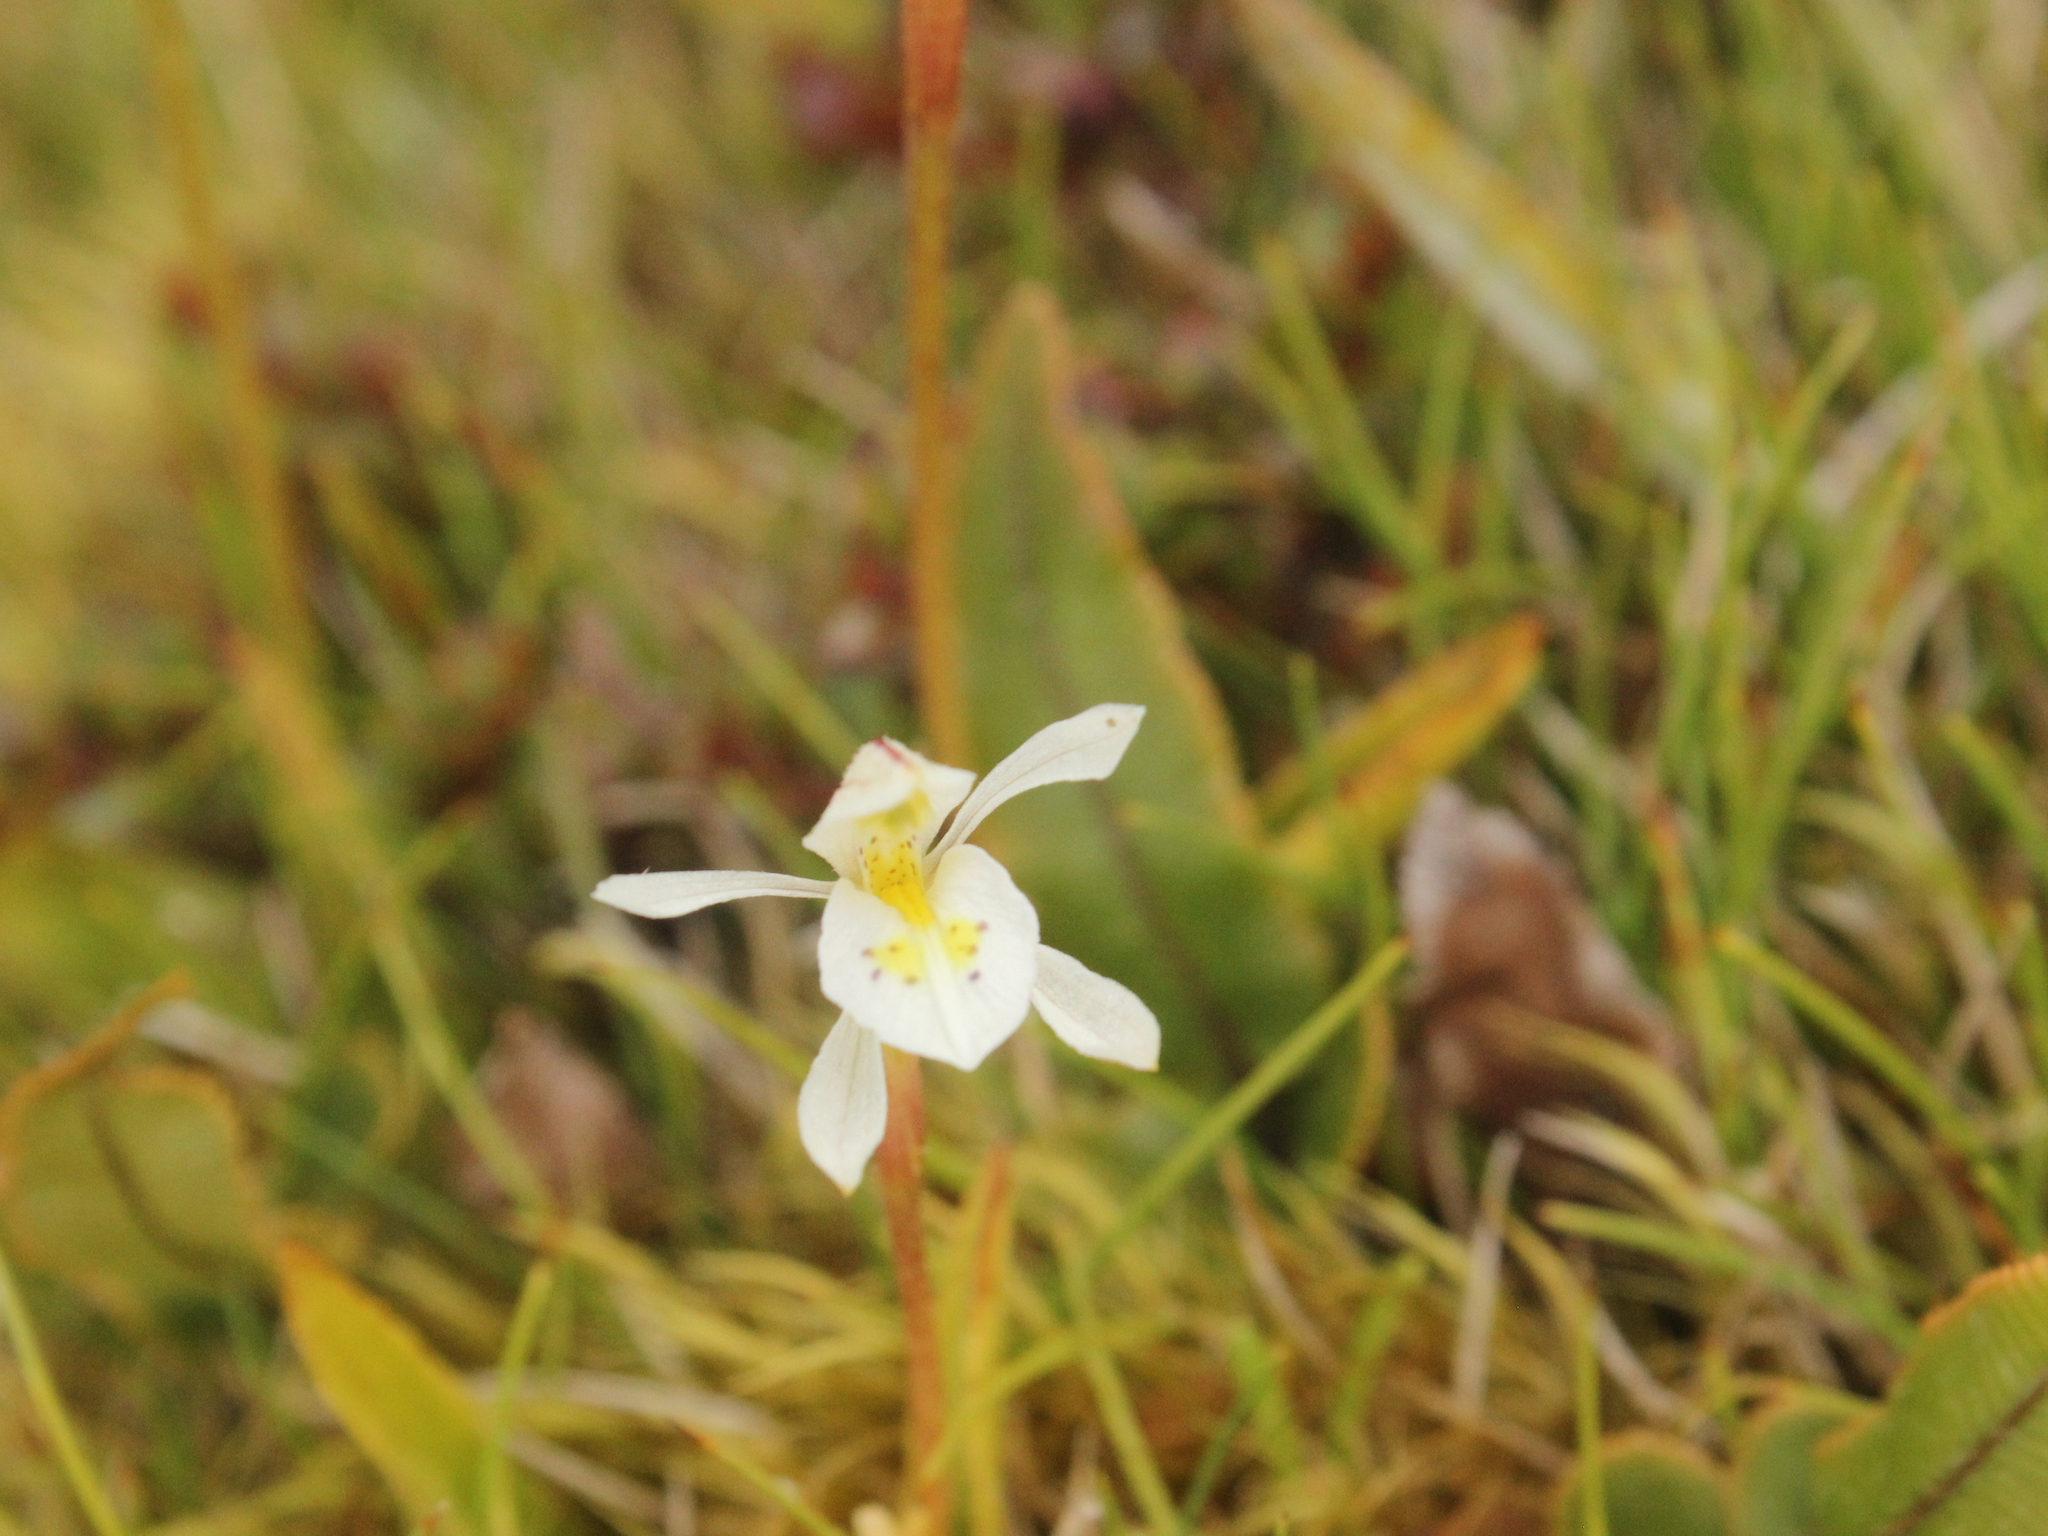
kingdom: Plantae
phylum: Tracheophyta
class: Liliopsida
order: Asparagales
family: Orchidaceae
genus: Aporostylis
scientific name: Aporostylis bifolia
